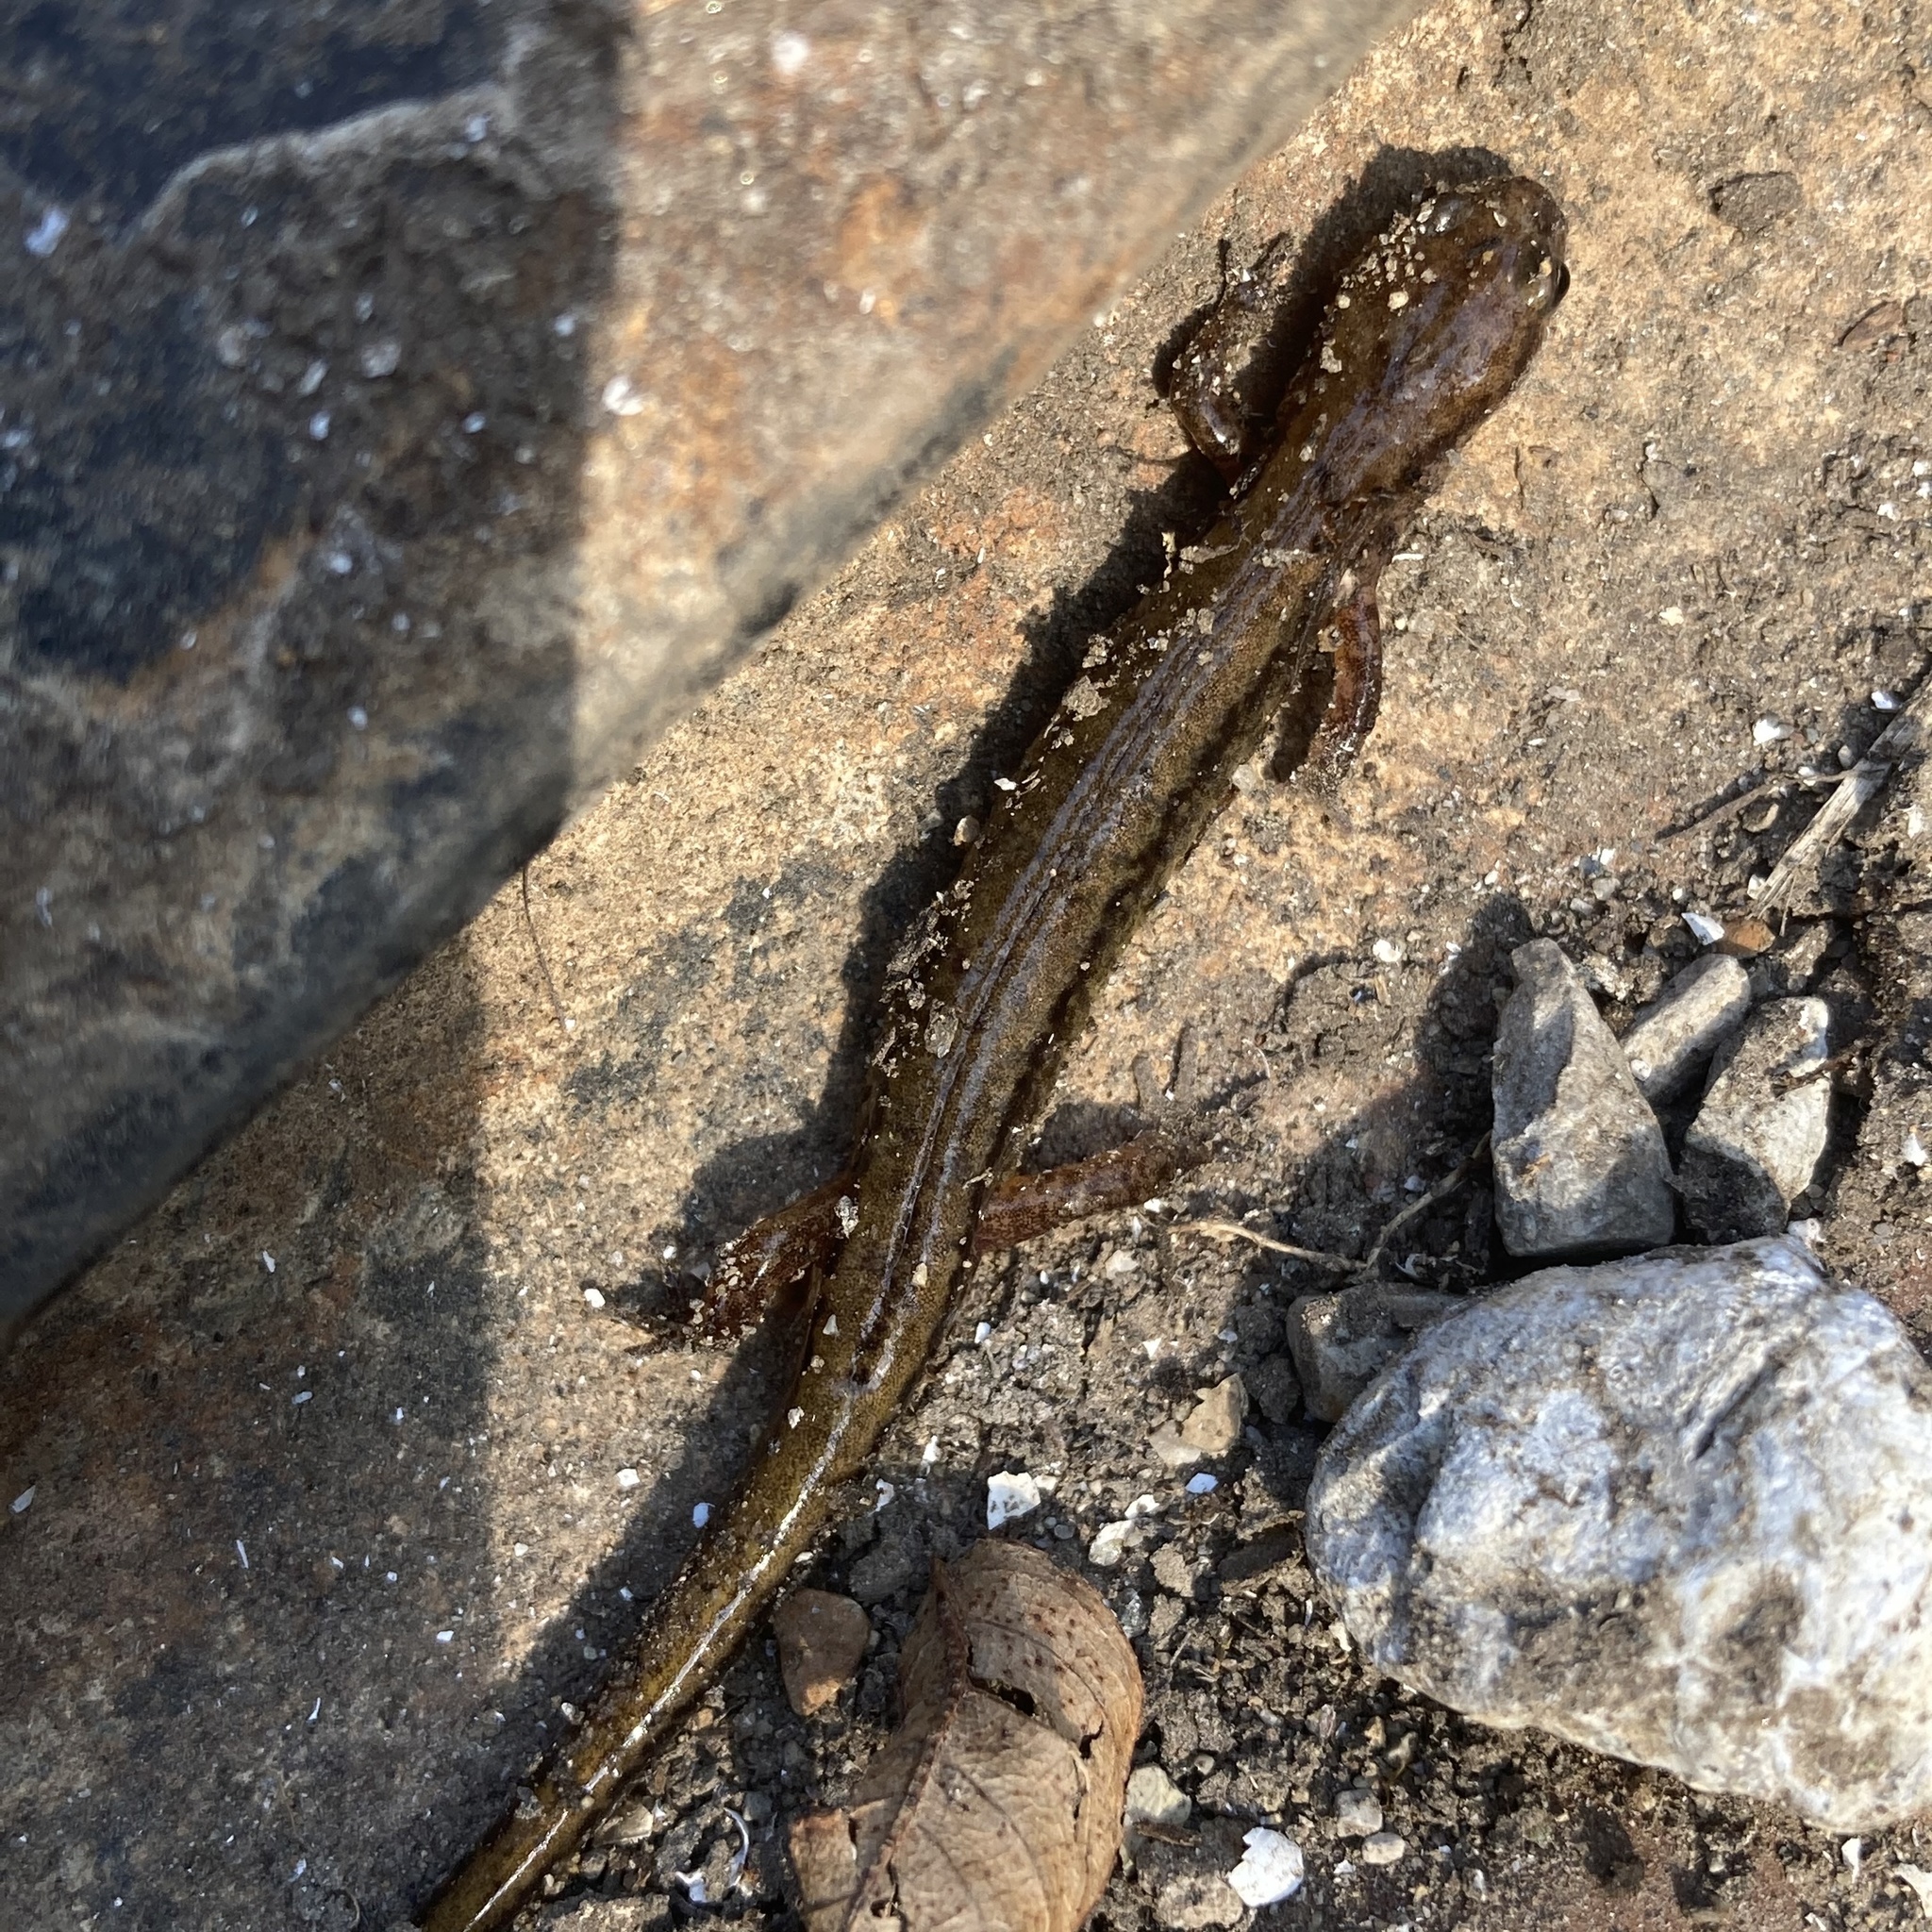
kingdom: Animalia
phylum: Chordata
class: Amphibia
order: Caudata
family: Plethodontidae
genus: Eurycea
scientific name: Eurycea cirrigera
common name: Southern two-lined salamander
